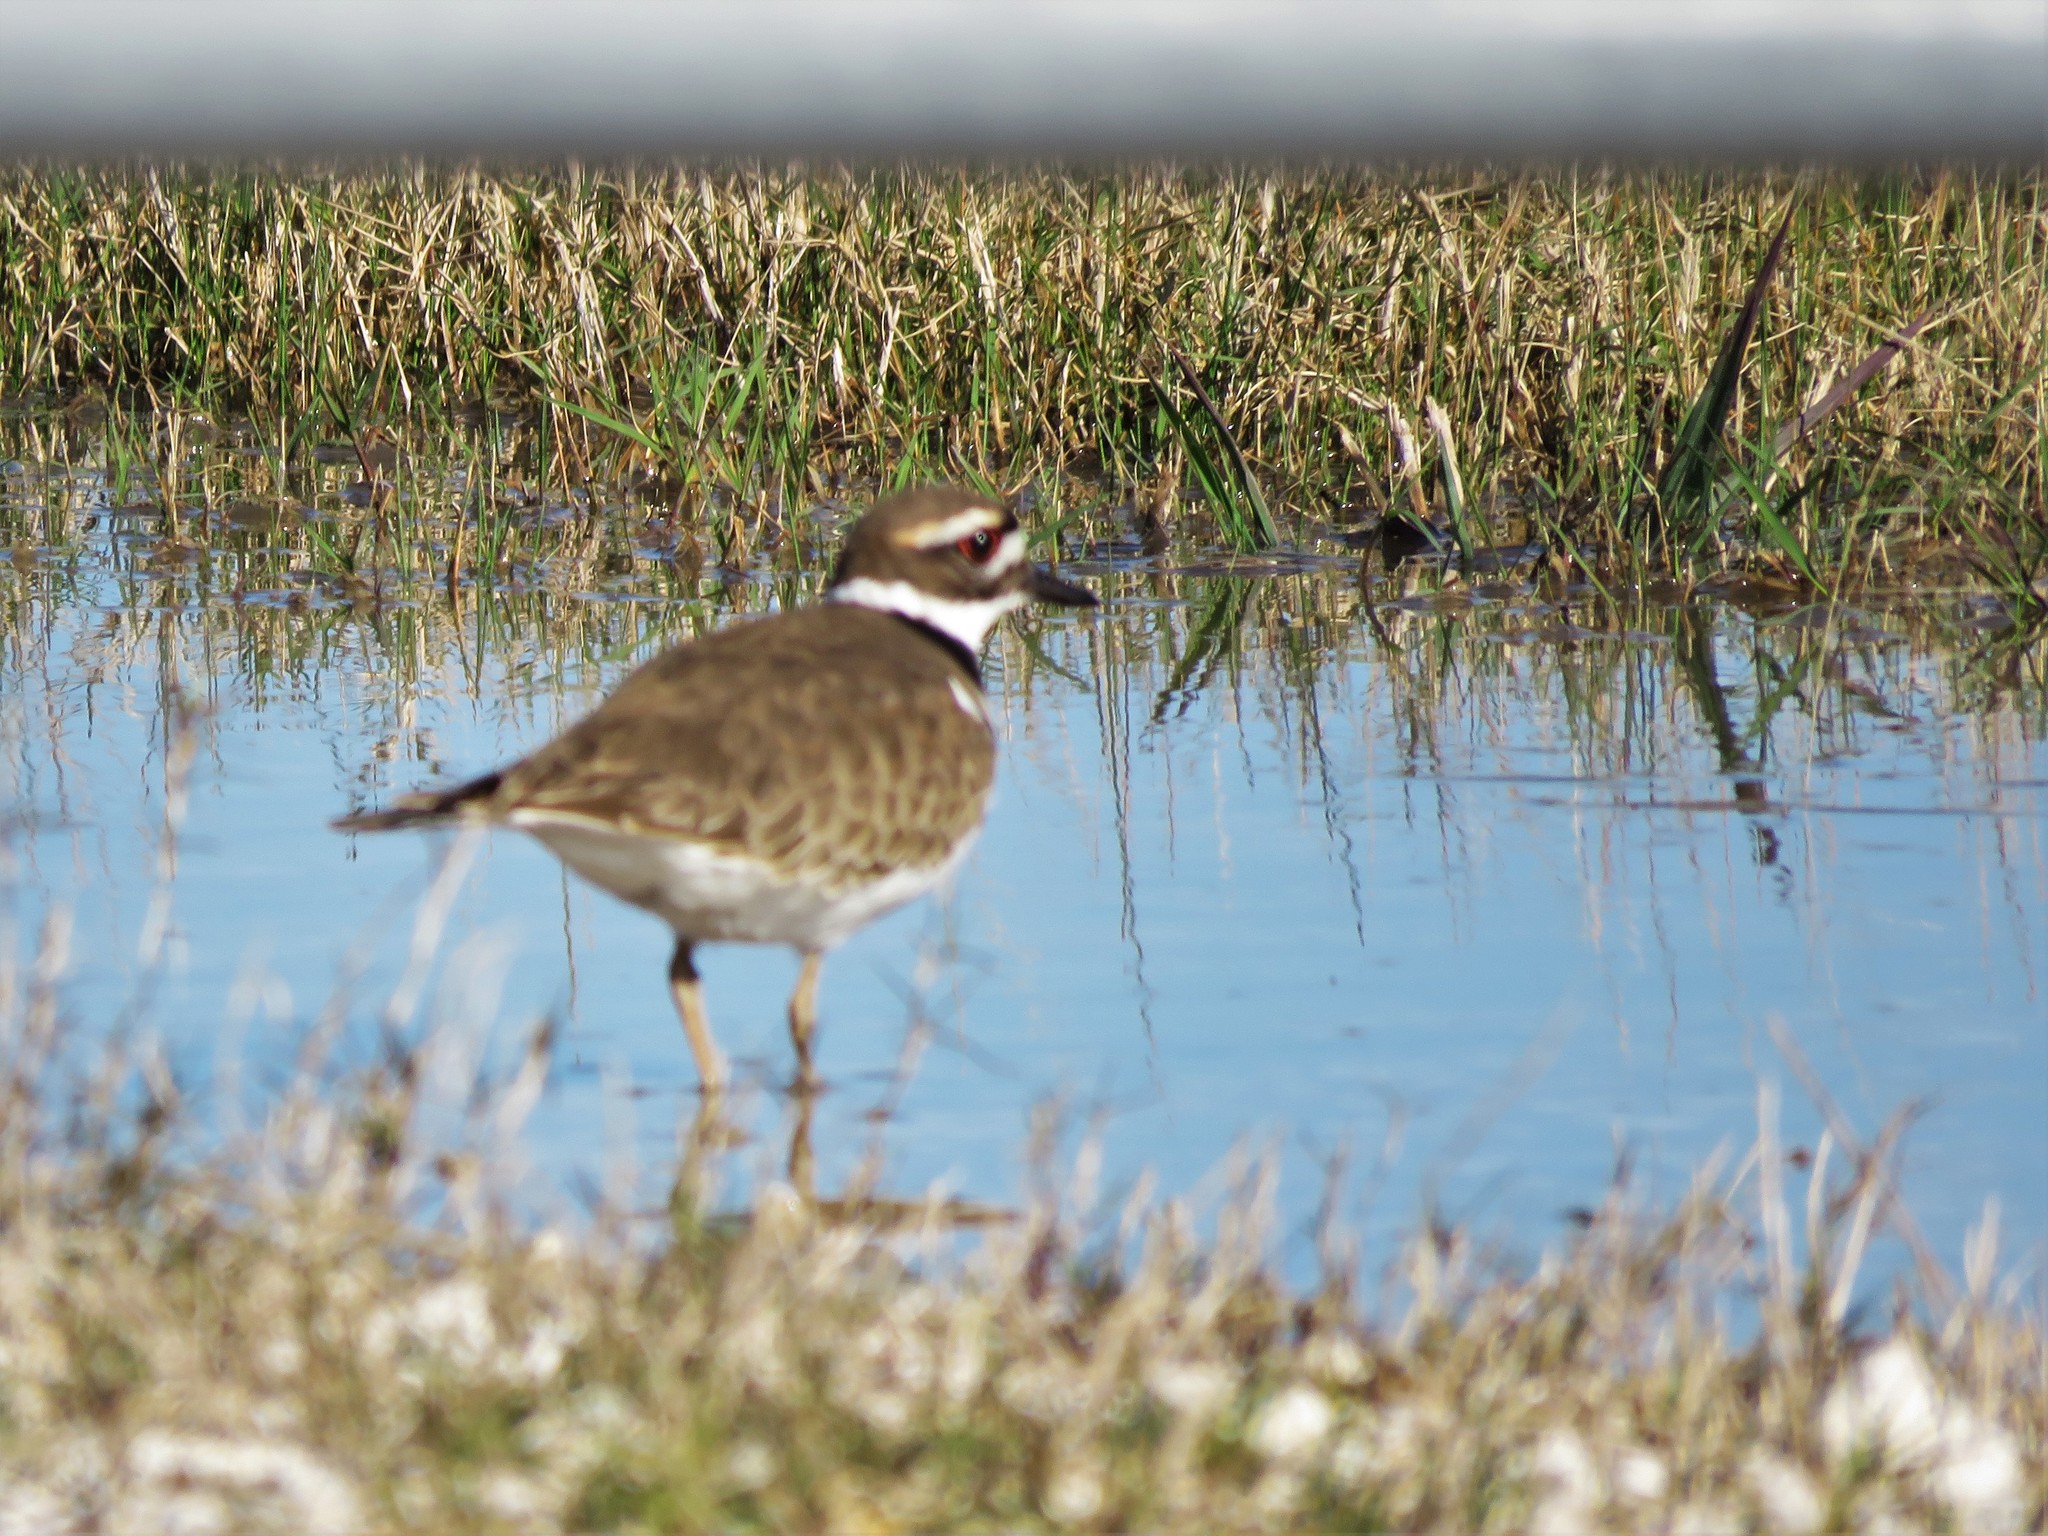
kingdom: Animalia
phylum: Chordata
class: Aves
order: Charadriiformes
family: Charadriidae
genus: Charadrius
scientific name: Charadrius vociferus
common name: Killdeer
